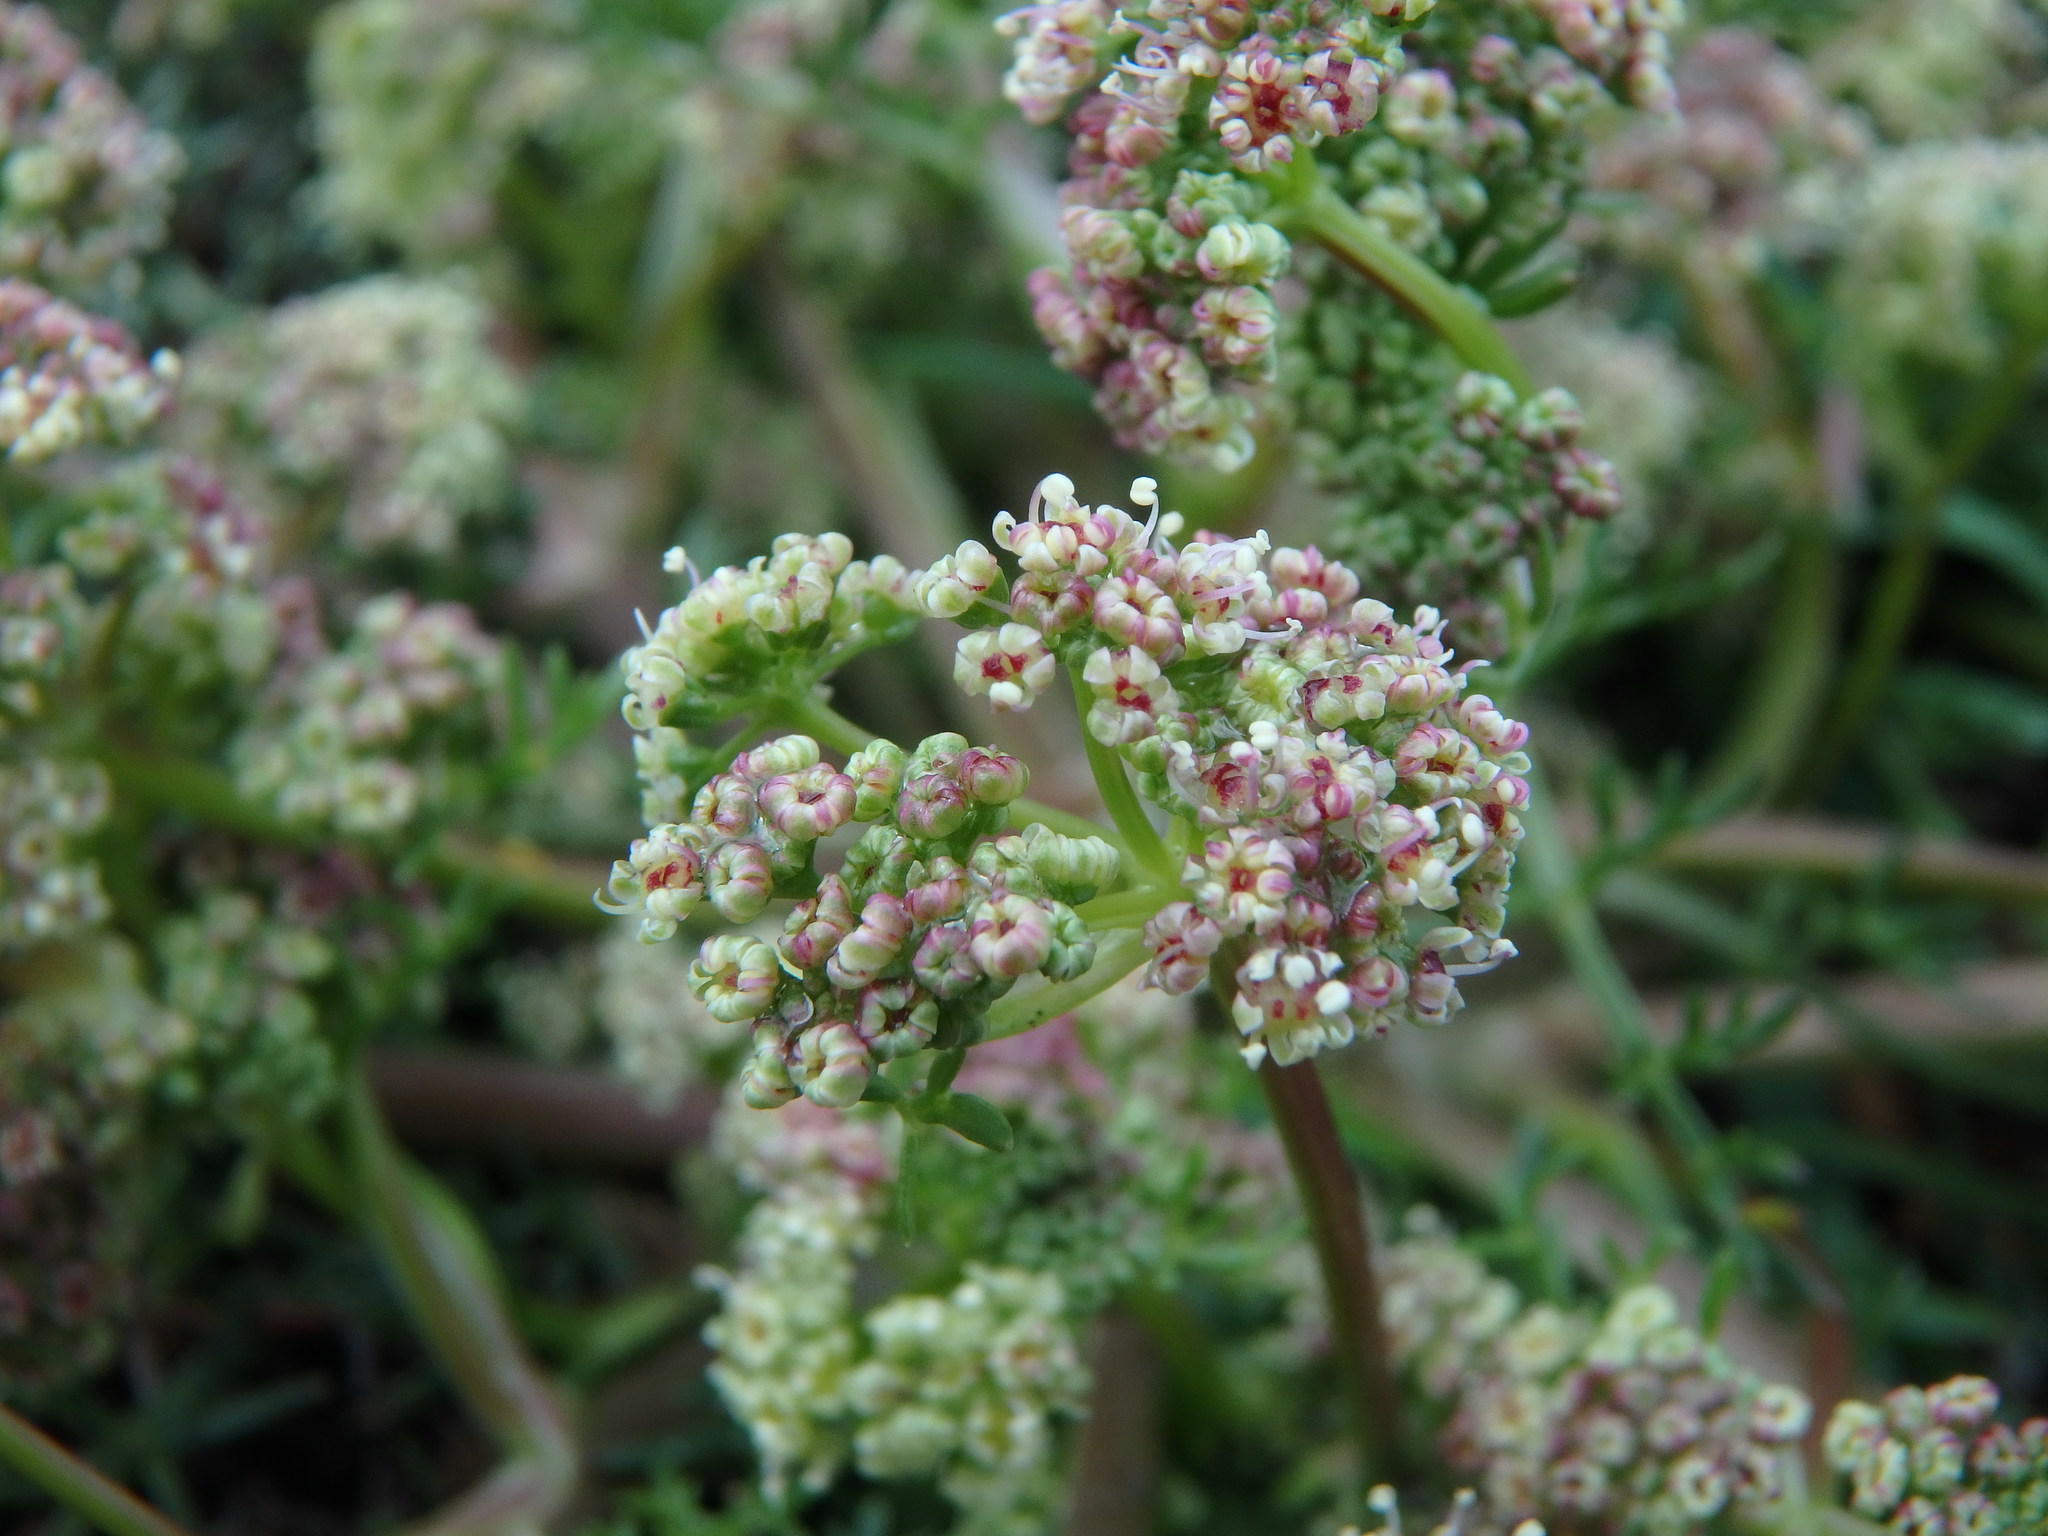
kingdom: Plantae
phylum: Tracheophyta
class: Magnoliopsida
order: Apiales
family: Apiaceae
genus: Trinia
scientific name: Trinia glauca
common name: Honewort
